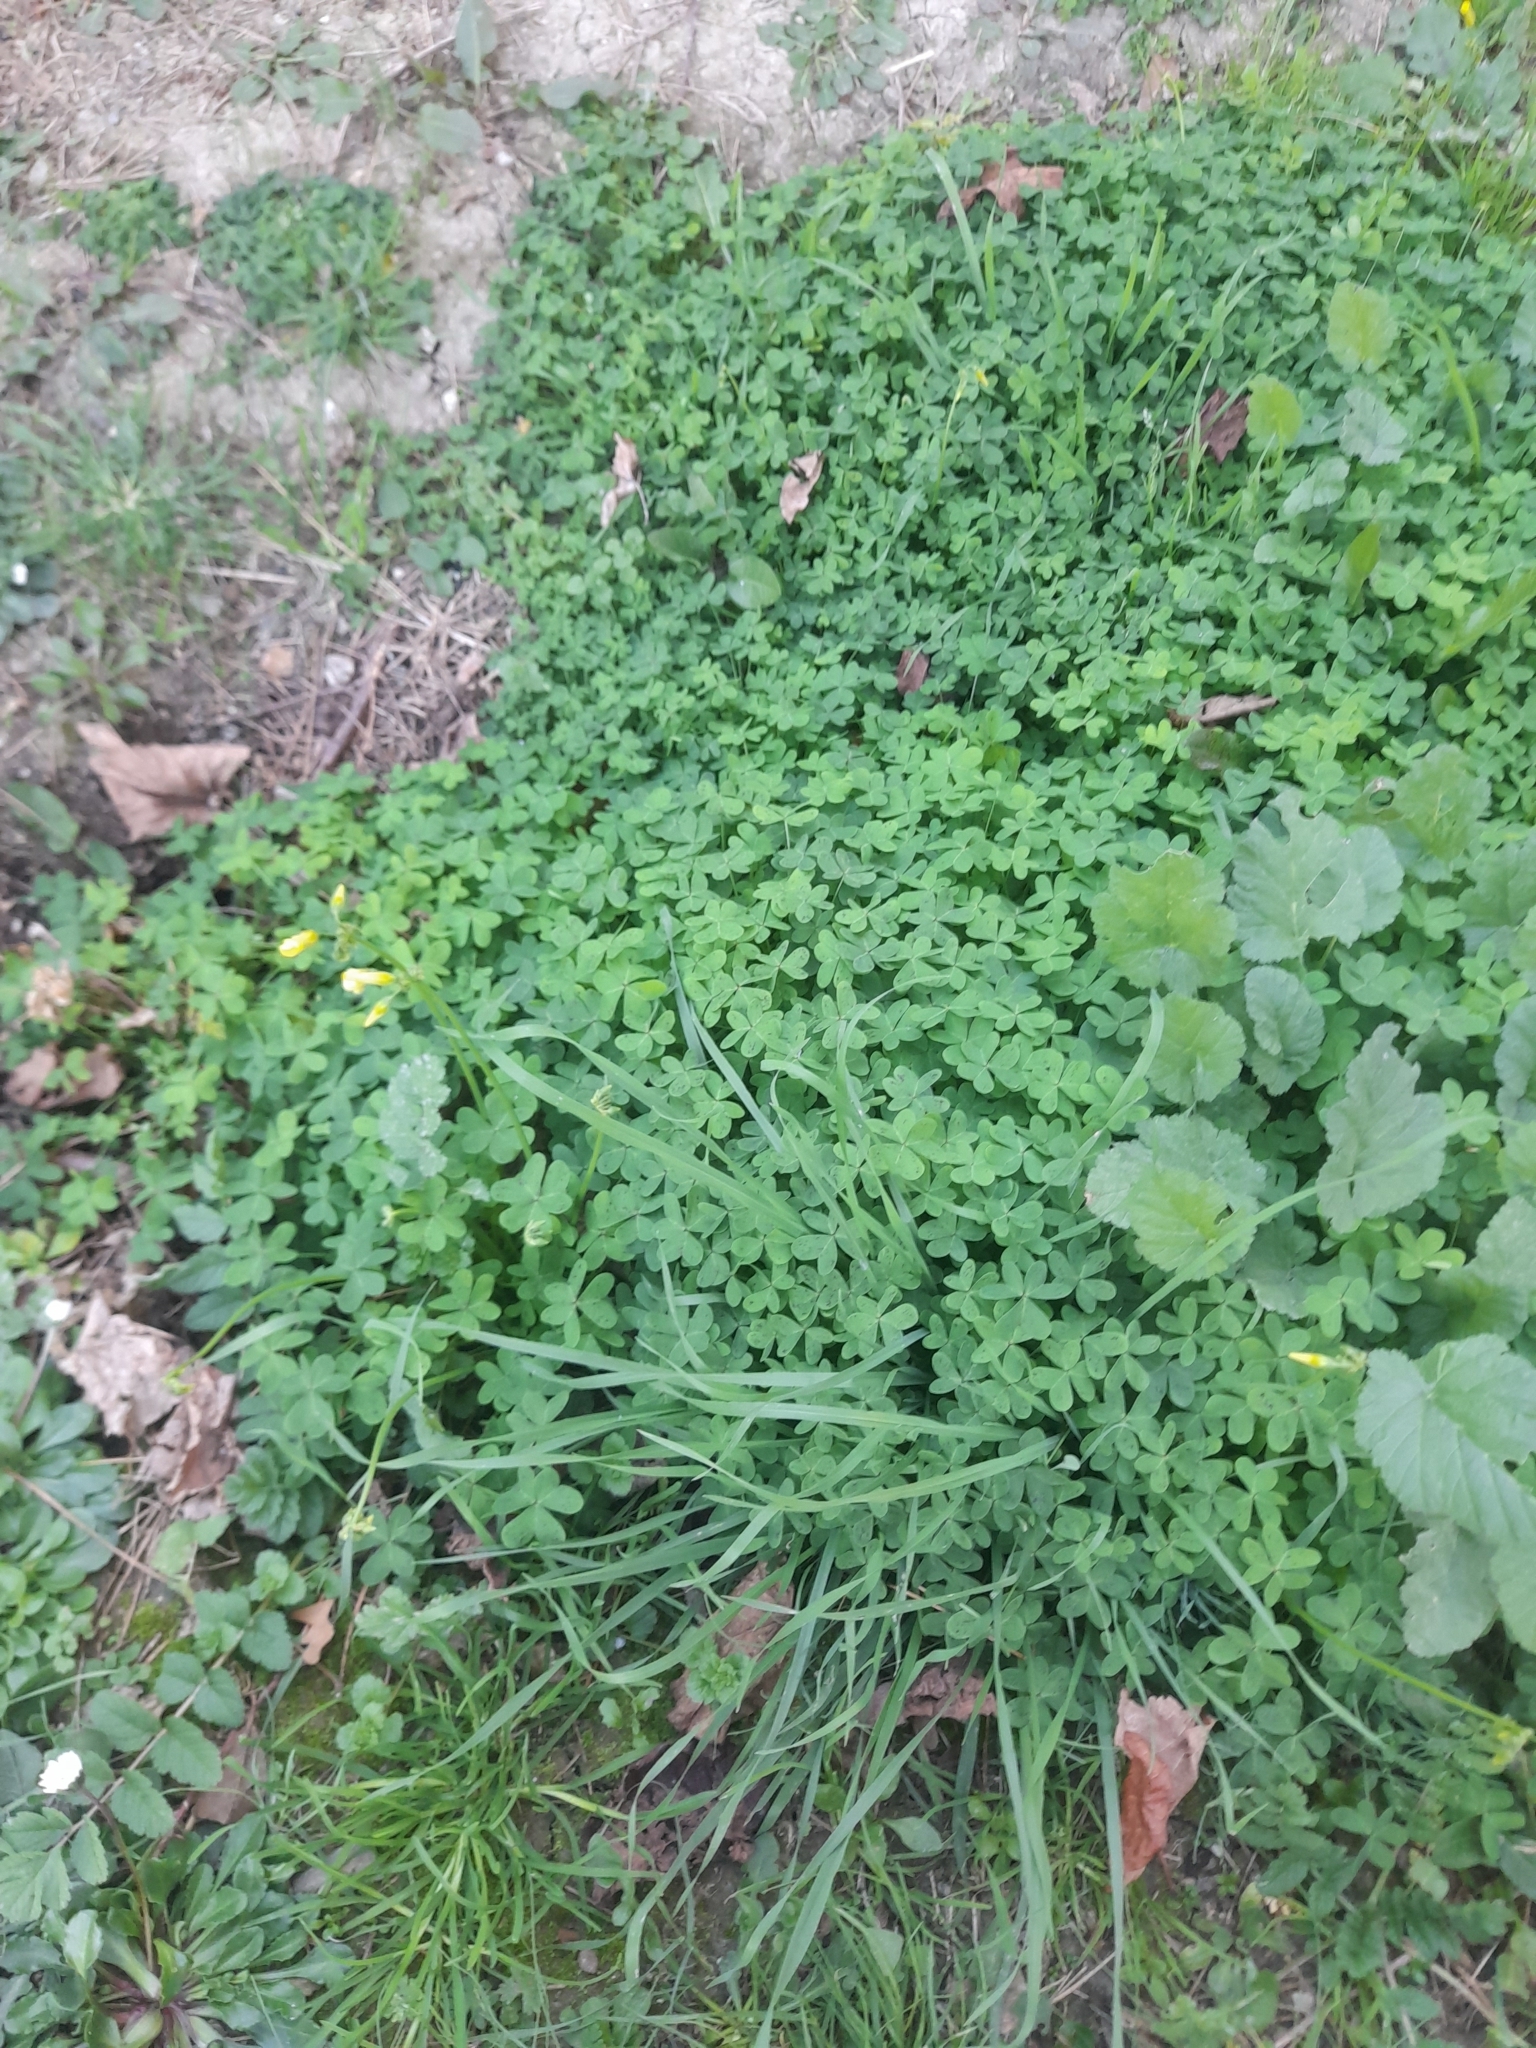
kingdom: Plantae
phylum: Tracheophyta
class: Magnoliopsida
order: Oxalidales
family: Oxalidaceae
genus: Oxalis
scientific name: Oxalis pes-caprae
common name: Bermuda-buttercup
